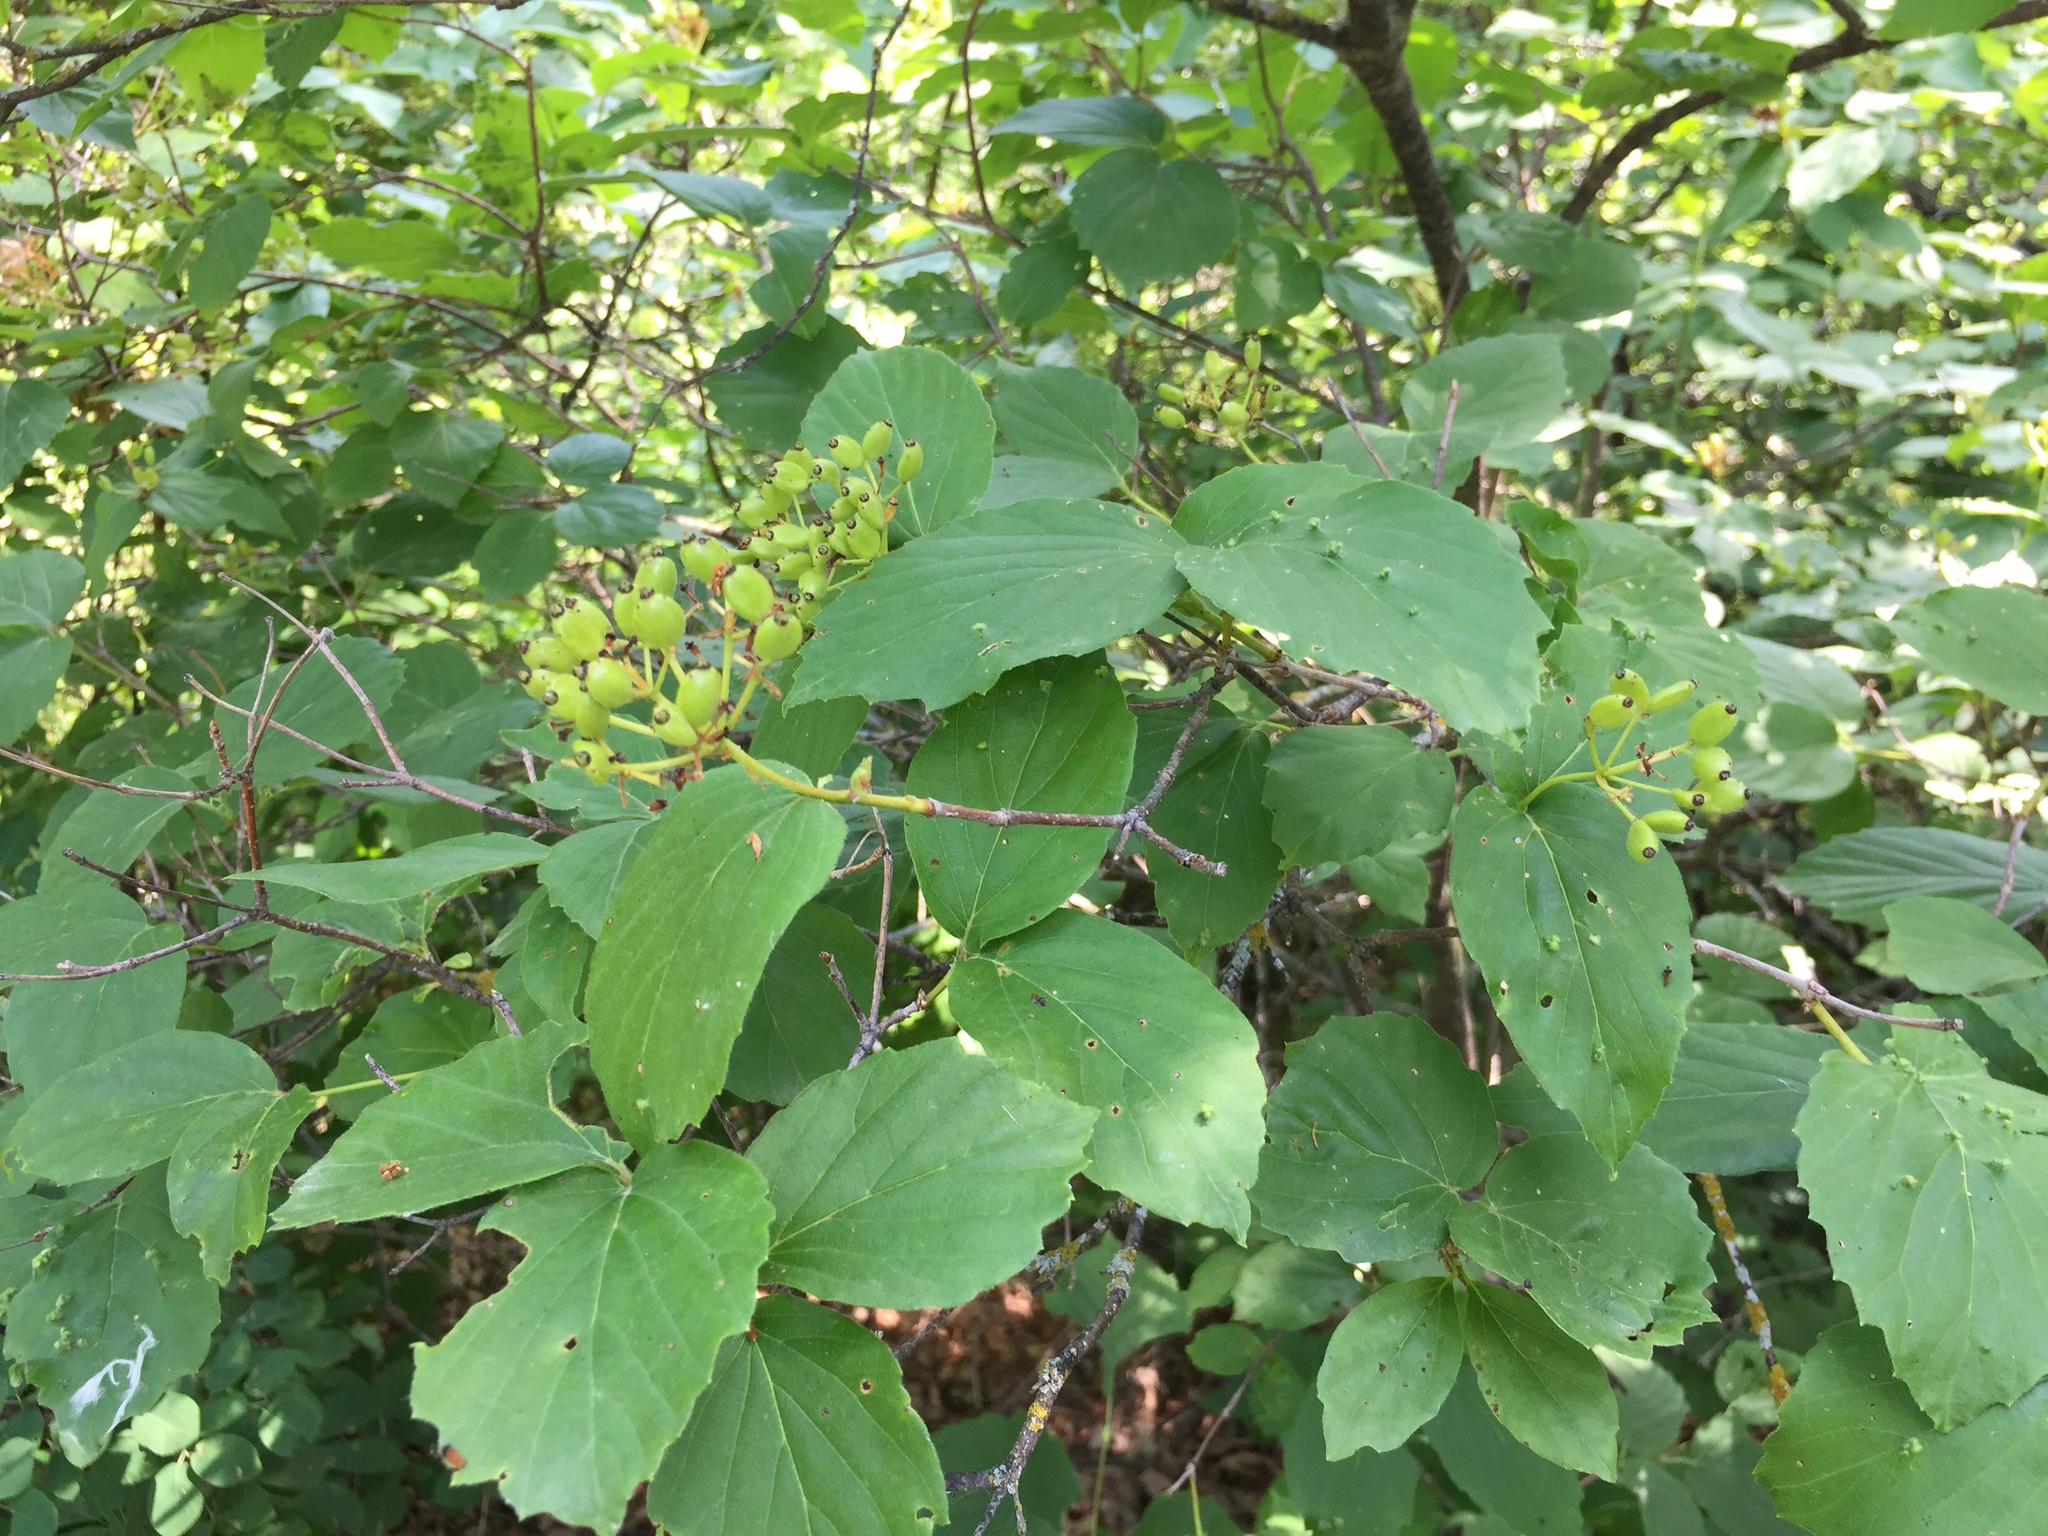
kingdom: Plantae
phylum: Tracheophyta
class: Magnoliopsida
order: Dipsacales
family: Viburnaceae
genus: Viburnum
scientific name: Viburnum rafinesqueanum
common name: Downy arrow-wood
